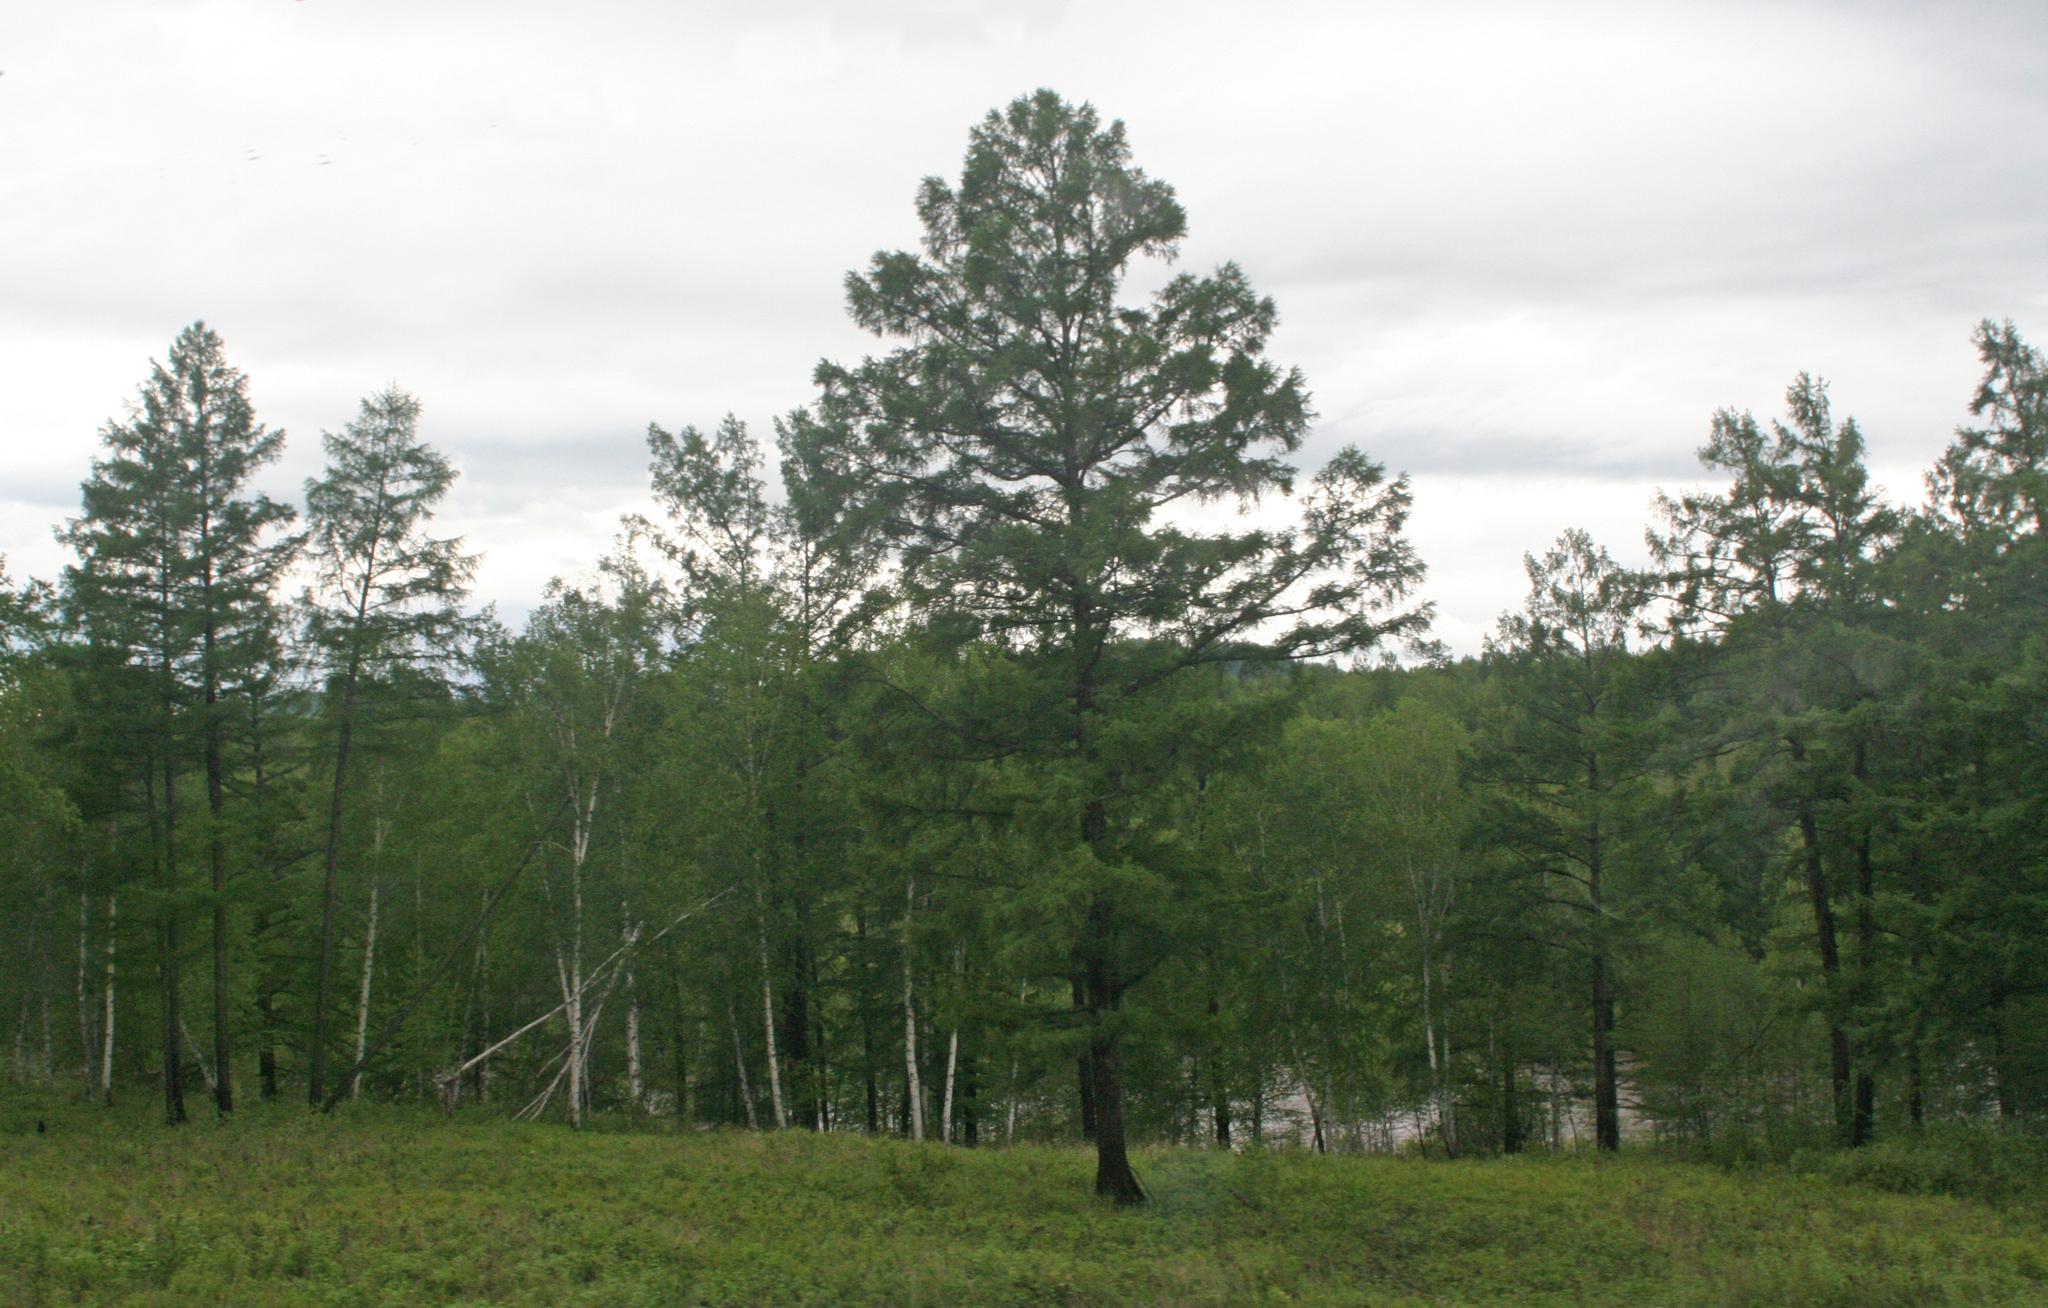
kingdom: Plantae
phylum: Tracheophyta
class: Pinopsida
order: Pinales
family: Pinaceae
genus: Larix
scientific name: Larix gmelinii
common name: Dahurian larch
